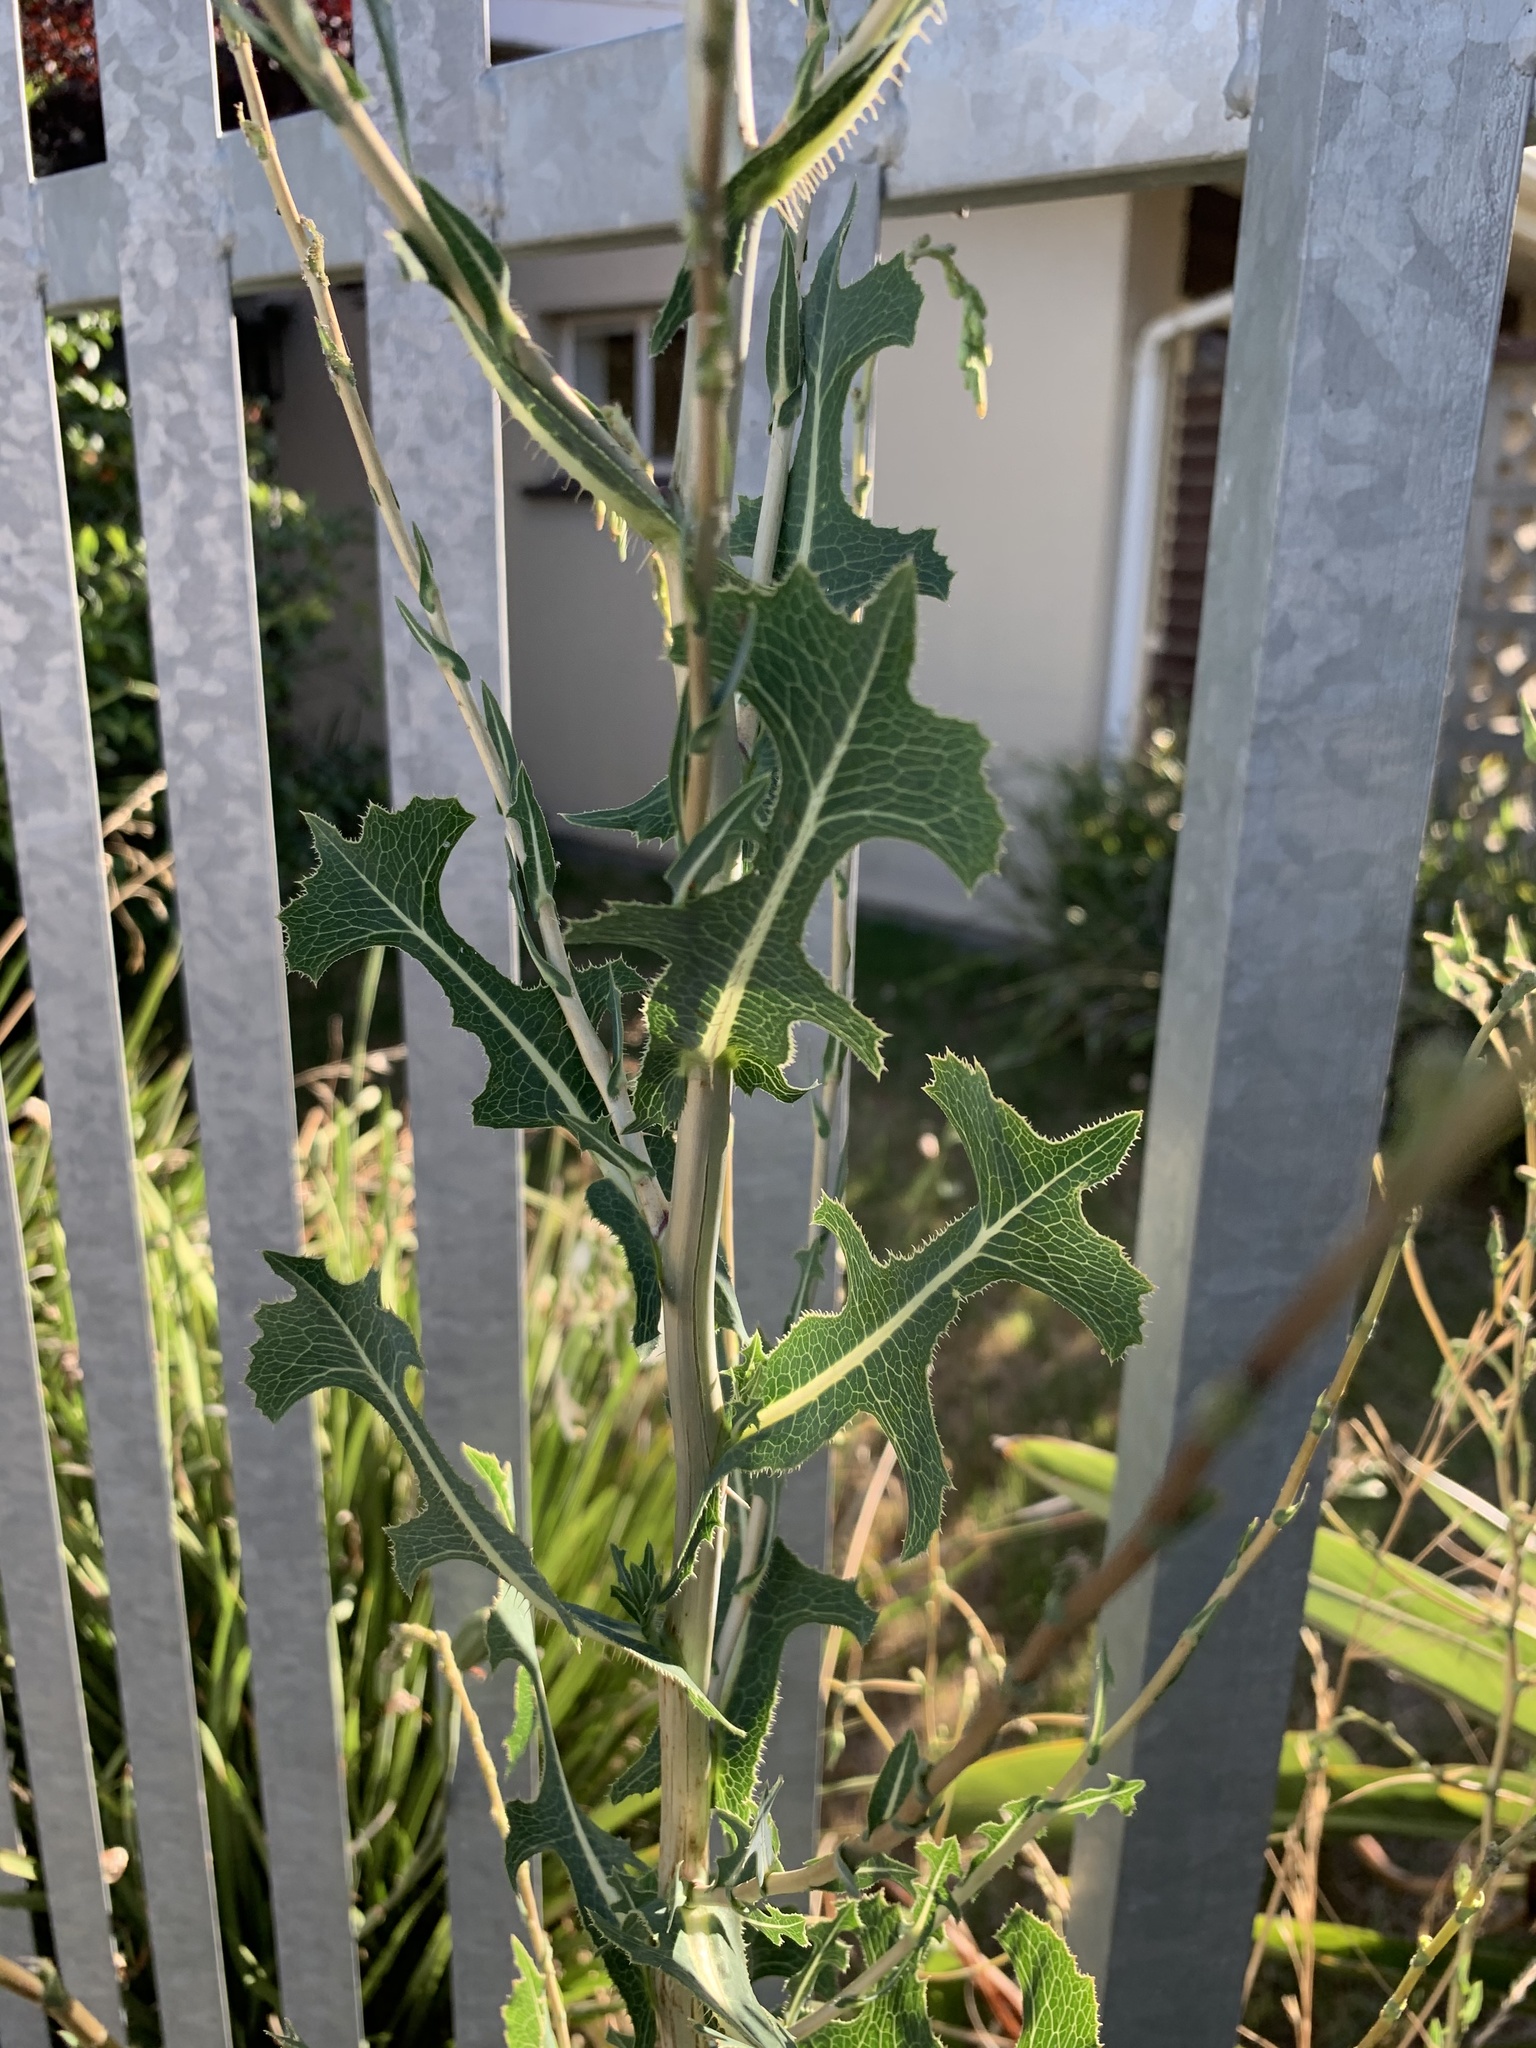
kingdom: Plantae
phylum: Tracheophyta
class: Magnoliopsida
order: Asterales
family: Asteraceae
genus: Lactuca
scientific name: Lactuca serriola
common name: Prickly lettuce
